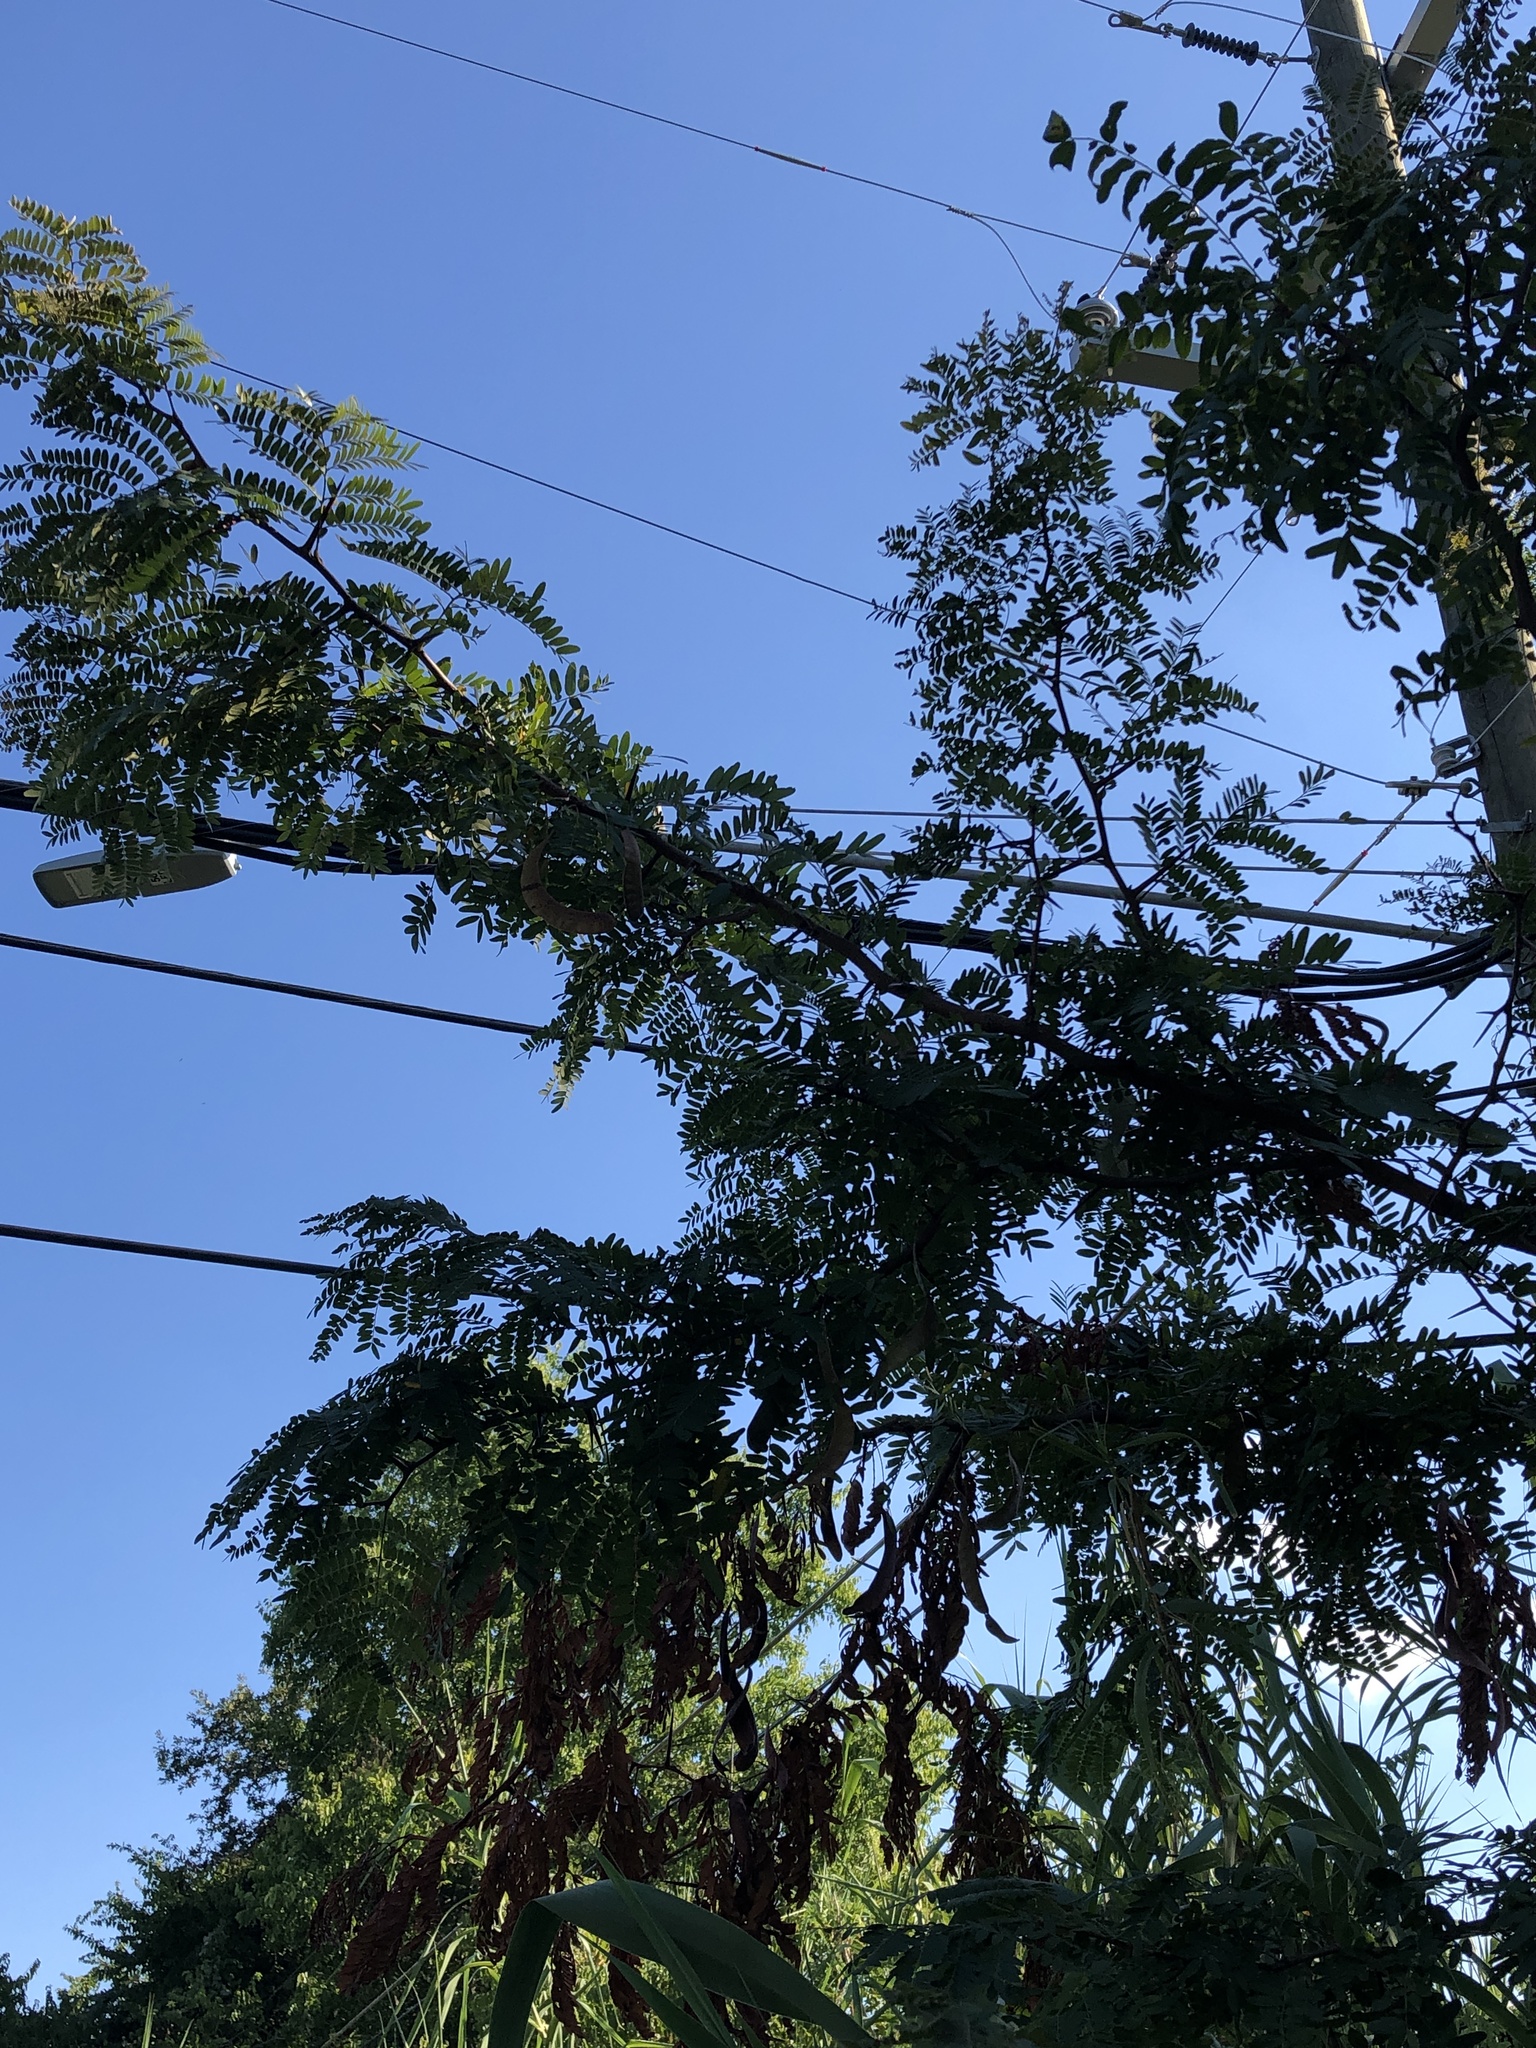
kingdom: Plantae
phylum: Tracheophyta
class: Magnoliopsida
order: Fabales
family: Fabaceae
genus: Gleditsia
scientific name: Gleditsia triacanthos
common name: Common honeylocust
